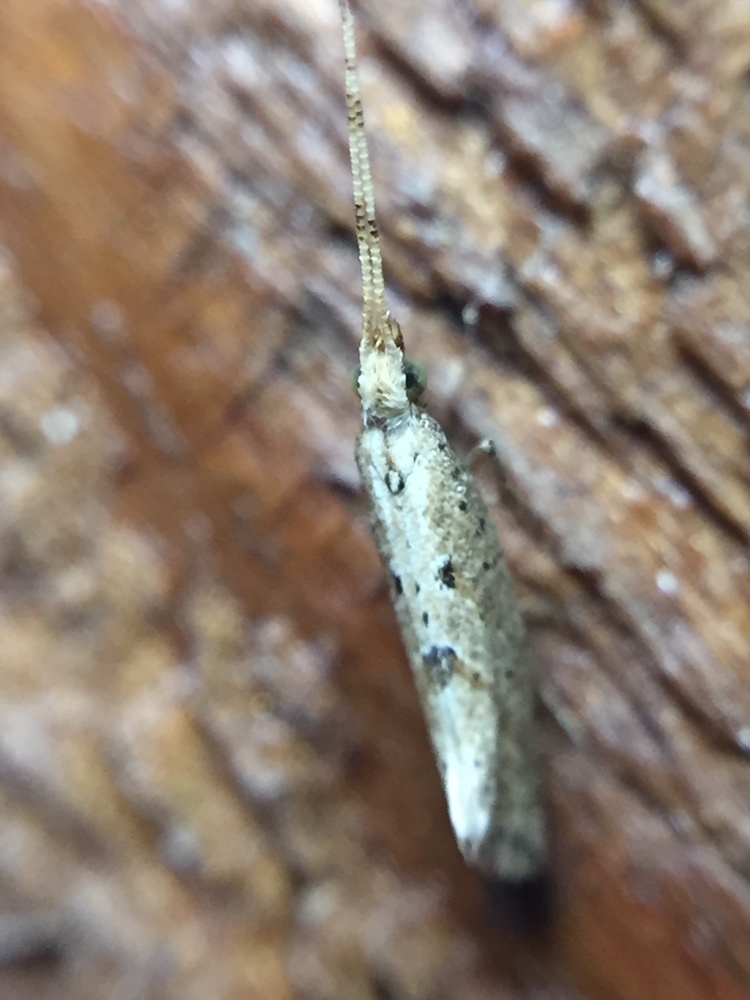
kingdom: Animalia
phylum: Arthropoda
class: Insecta
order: Lepidoptera
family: Plutellidae
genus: Leuroperna
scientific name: Leuroperna sera
